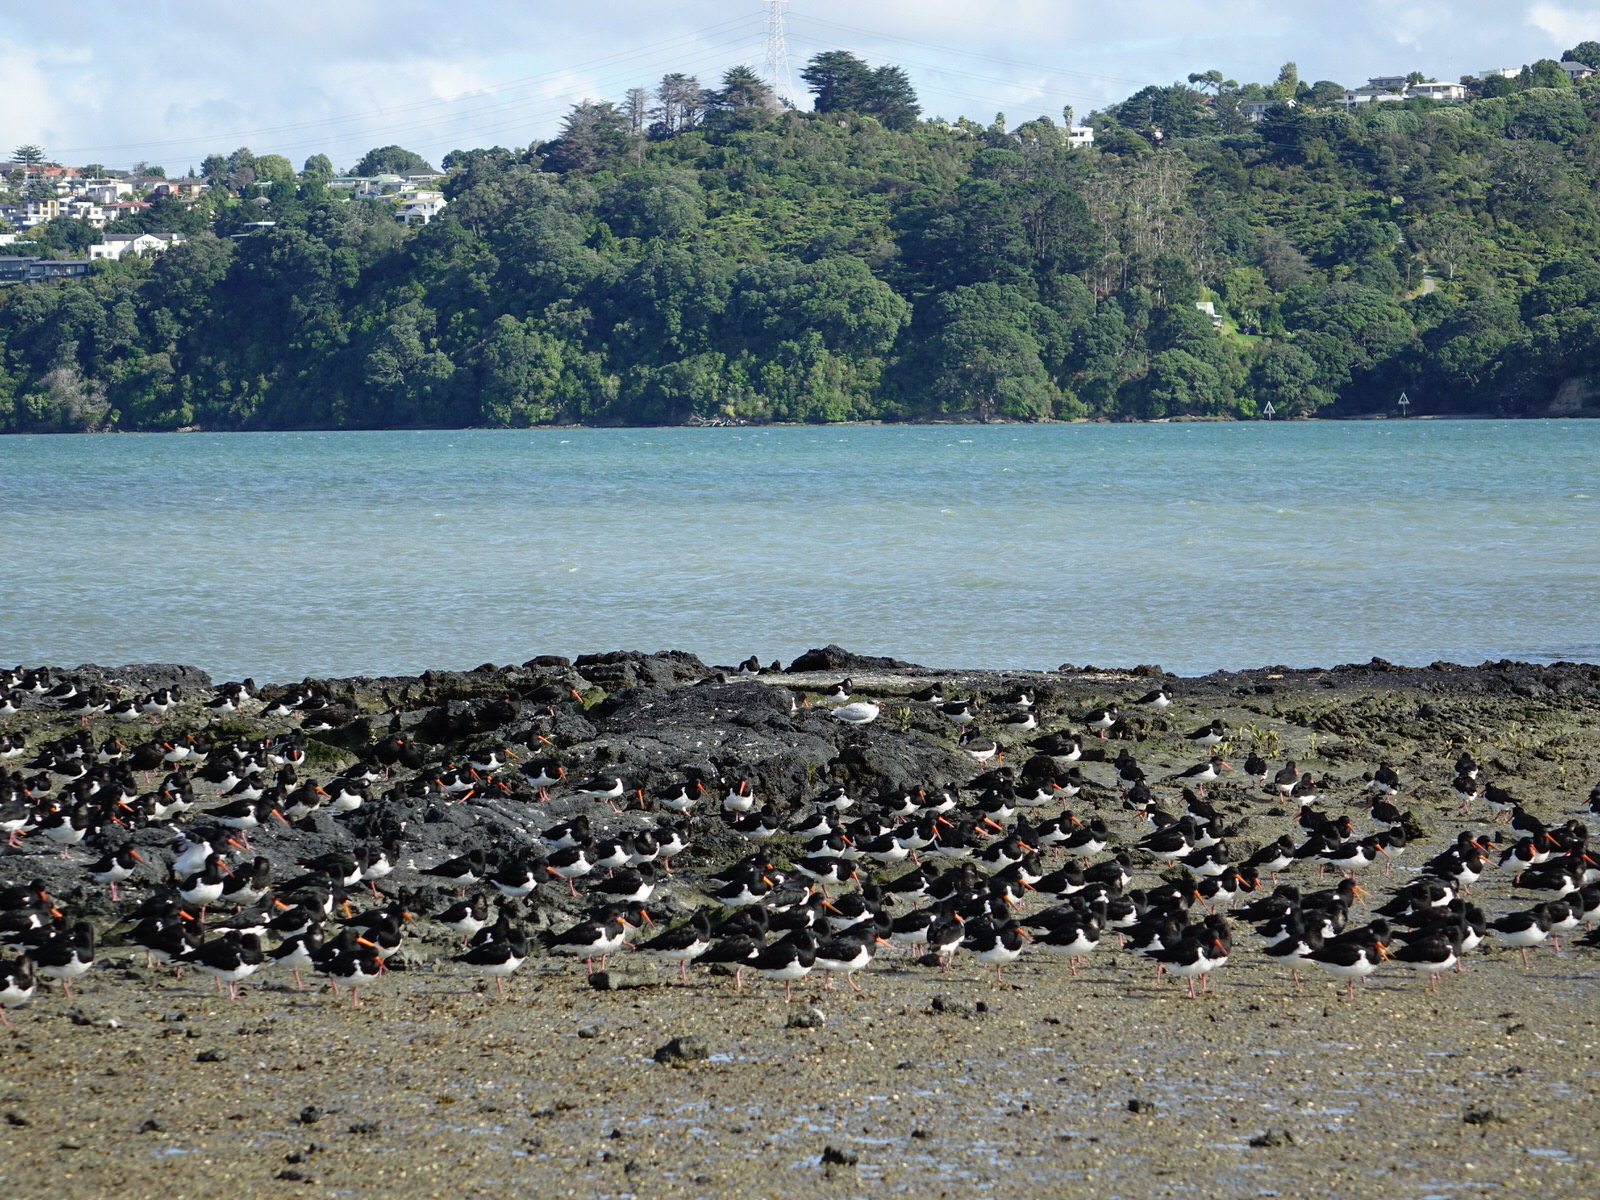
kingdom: Animalia
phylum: Chordata
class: Aves
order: Charadriiformes
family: Laridae
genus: Hydroprogne
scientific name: Hydroprogne caspia
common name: Caspian tern
